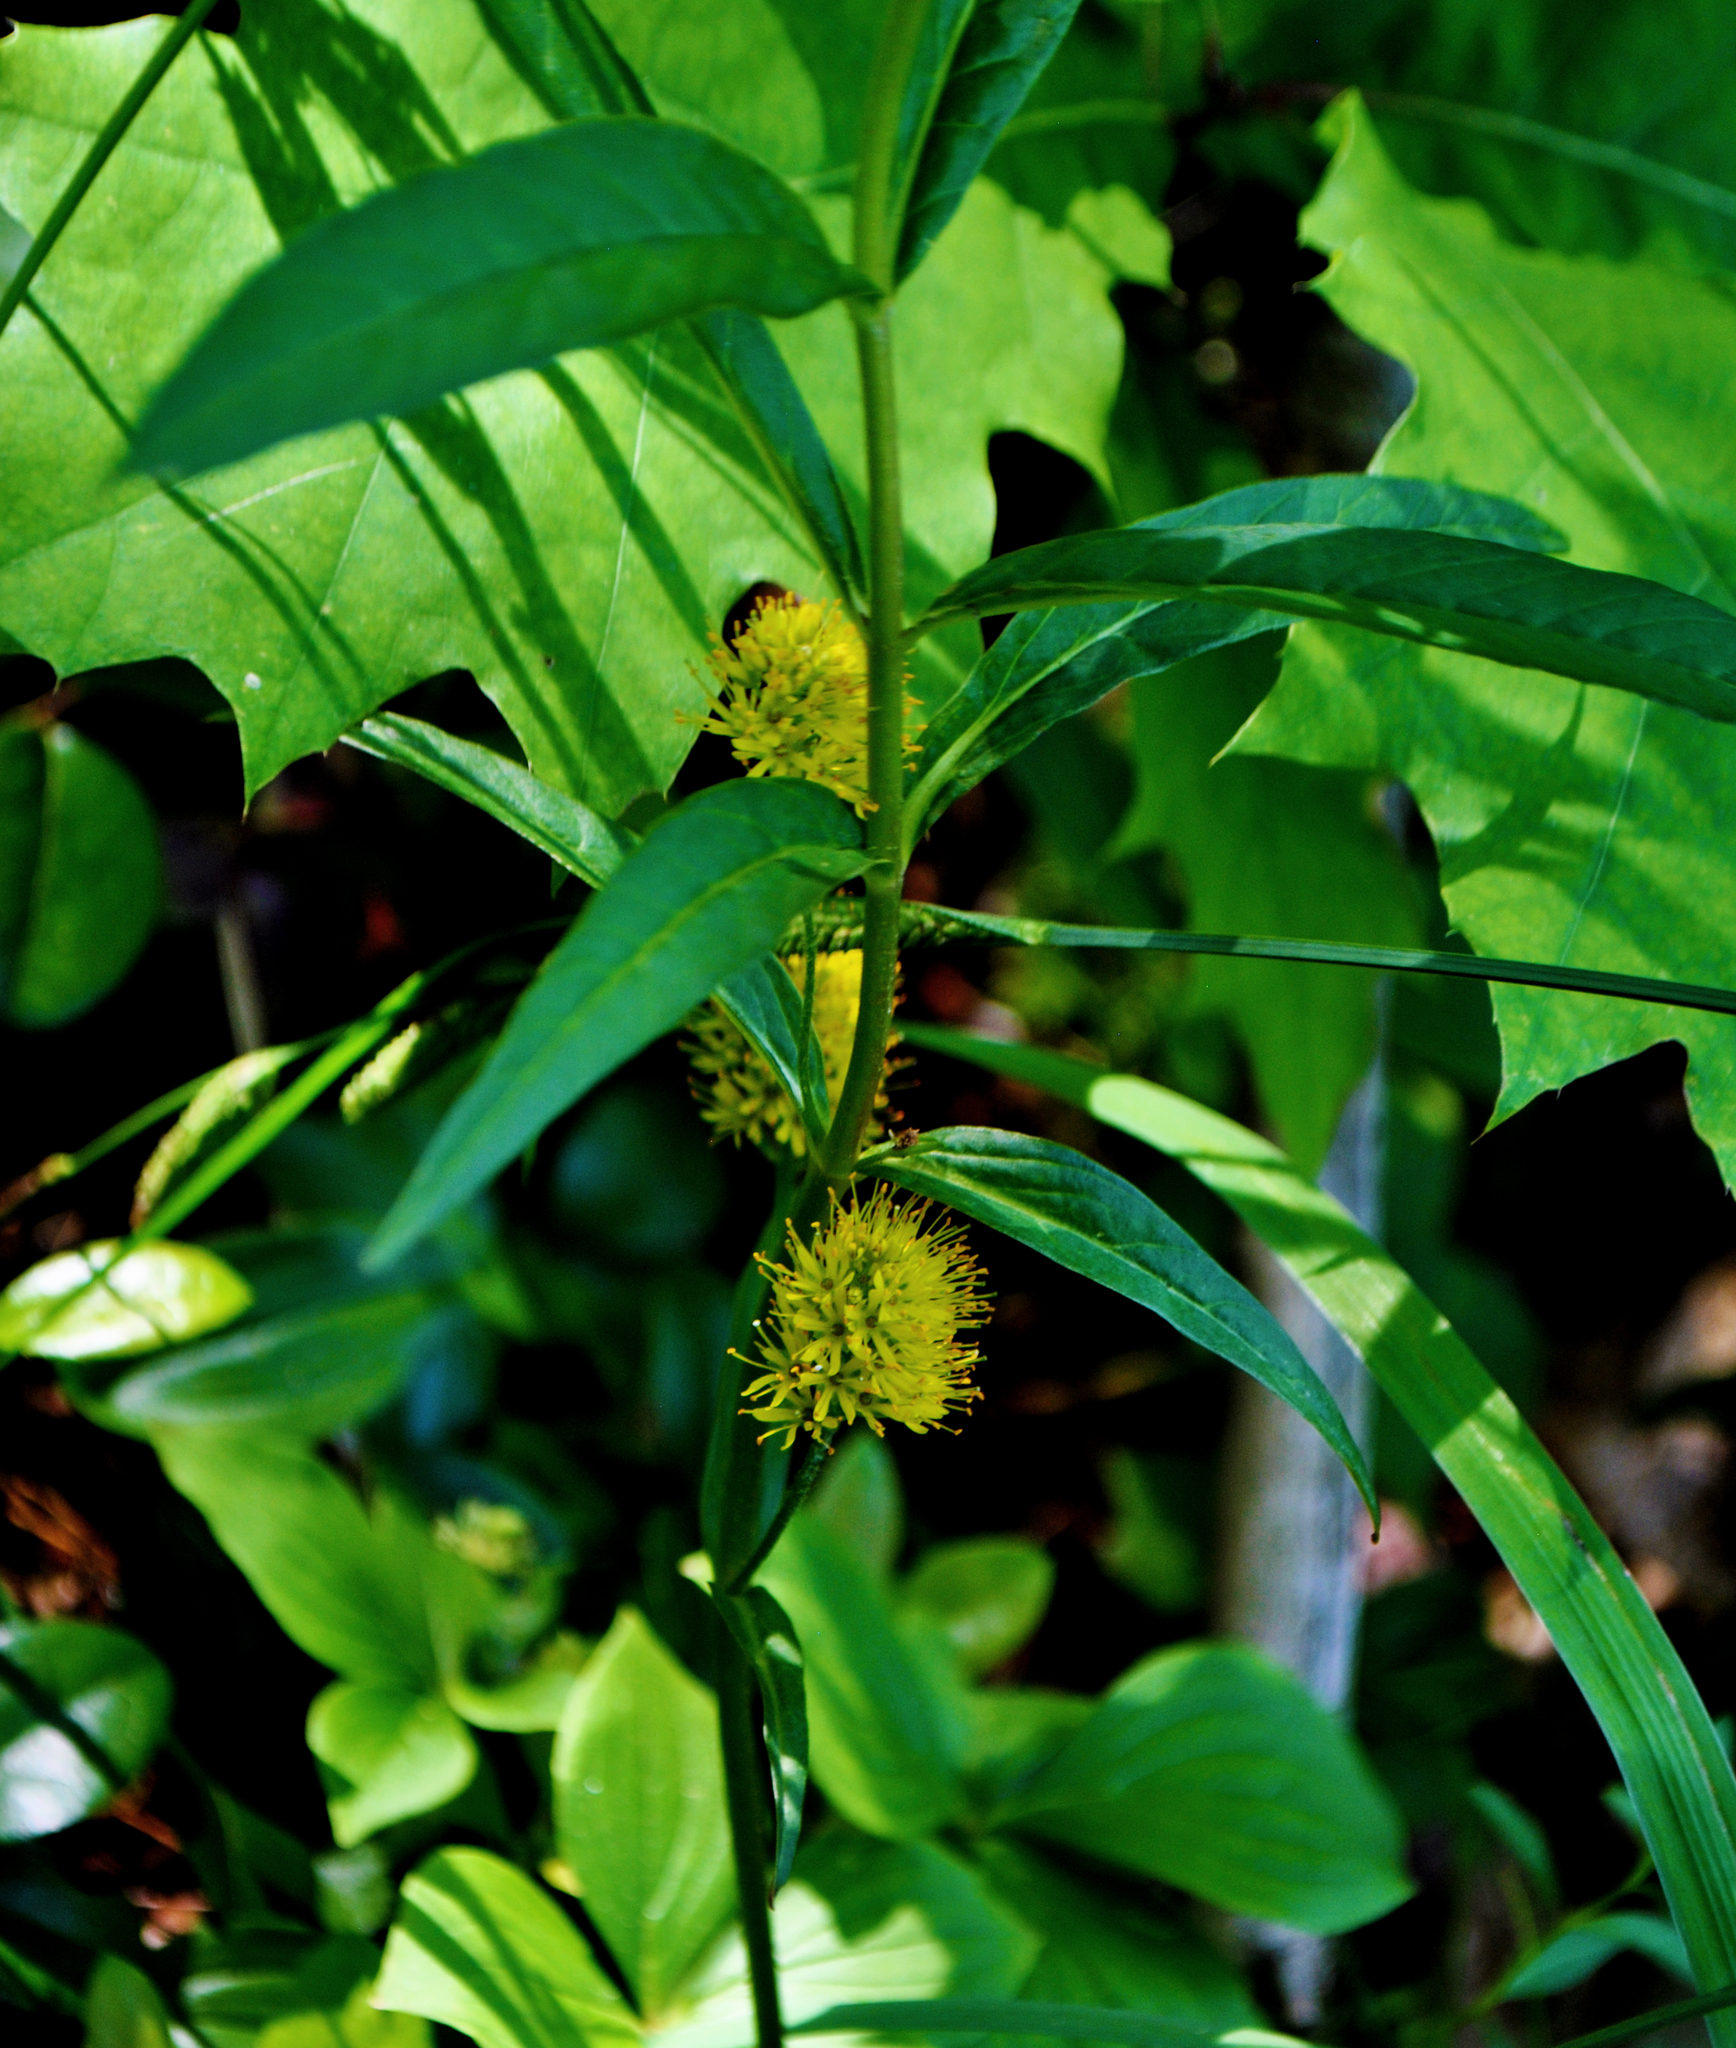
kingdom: Plantae
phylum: Tracheophyta
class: Magnoliopsida
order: Ericales
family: Primulaceae
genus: Lysimachia
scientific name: Lysimachia thyrsiflora
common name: Tufted loosestrife
